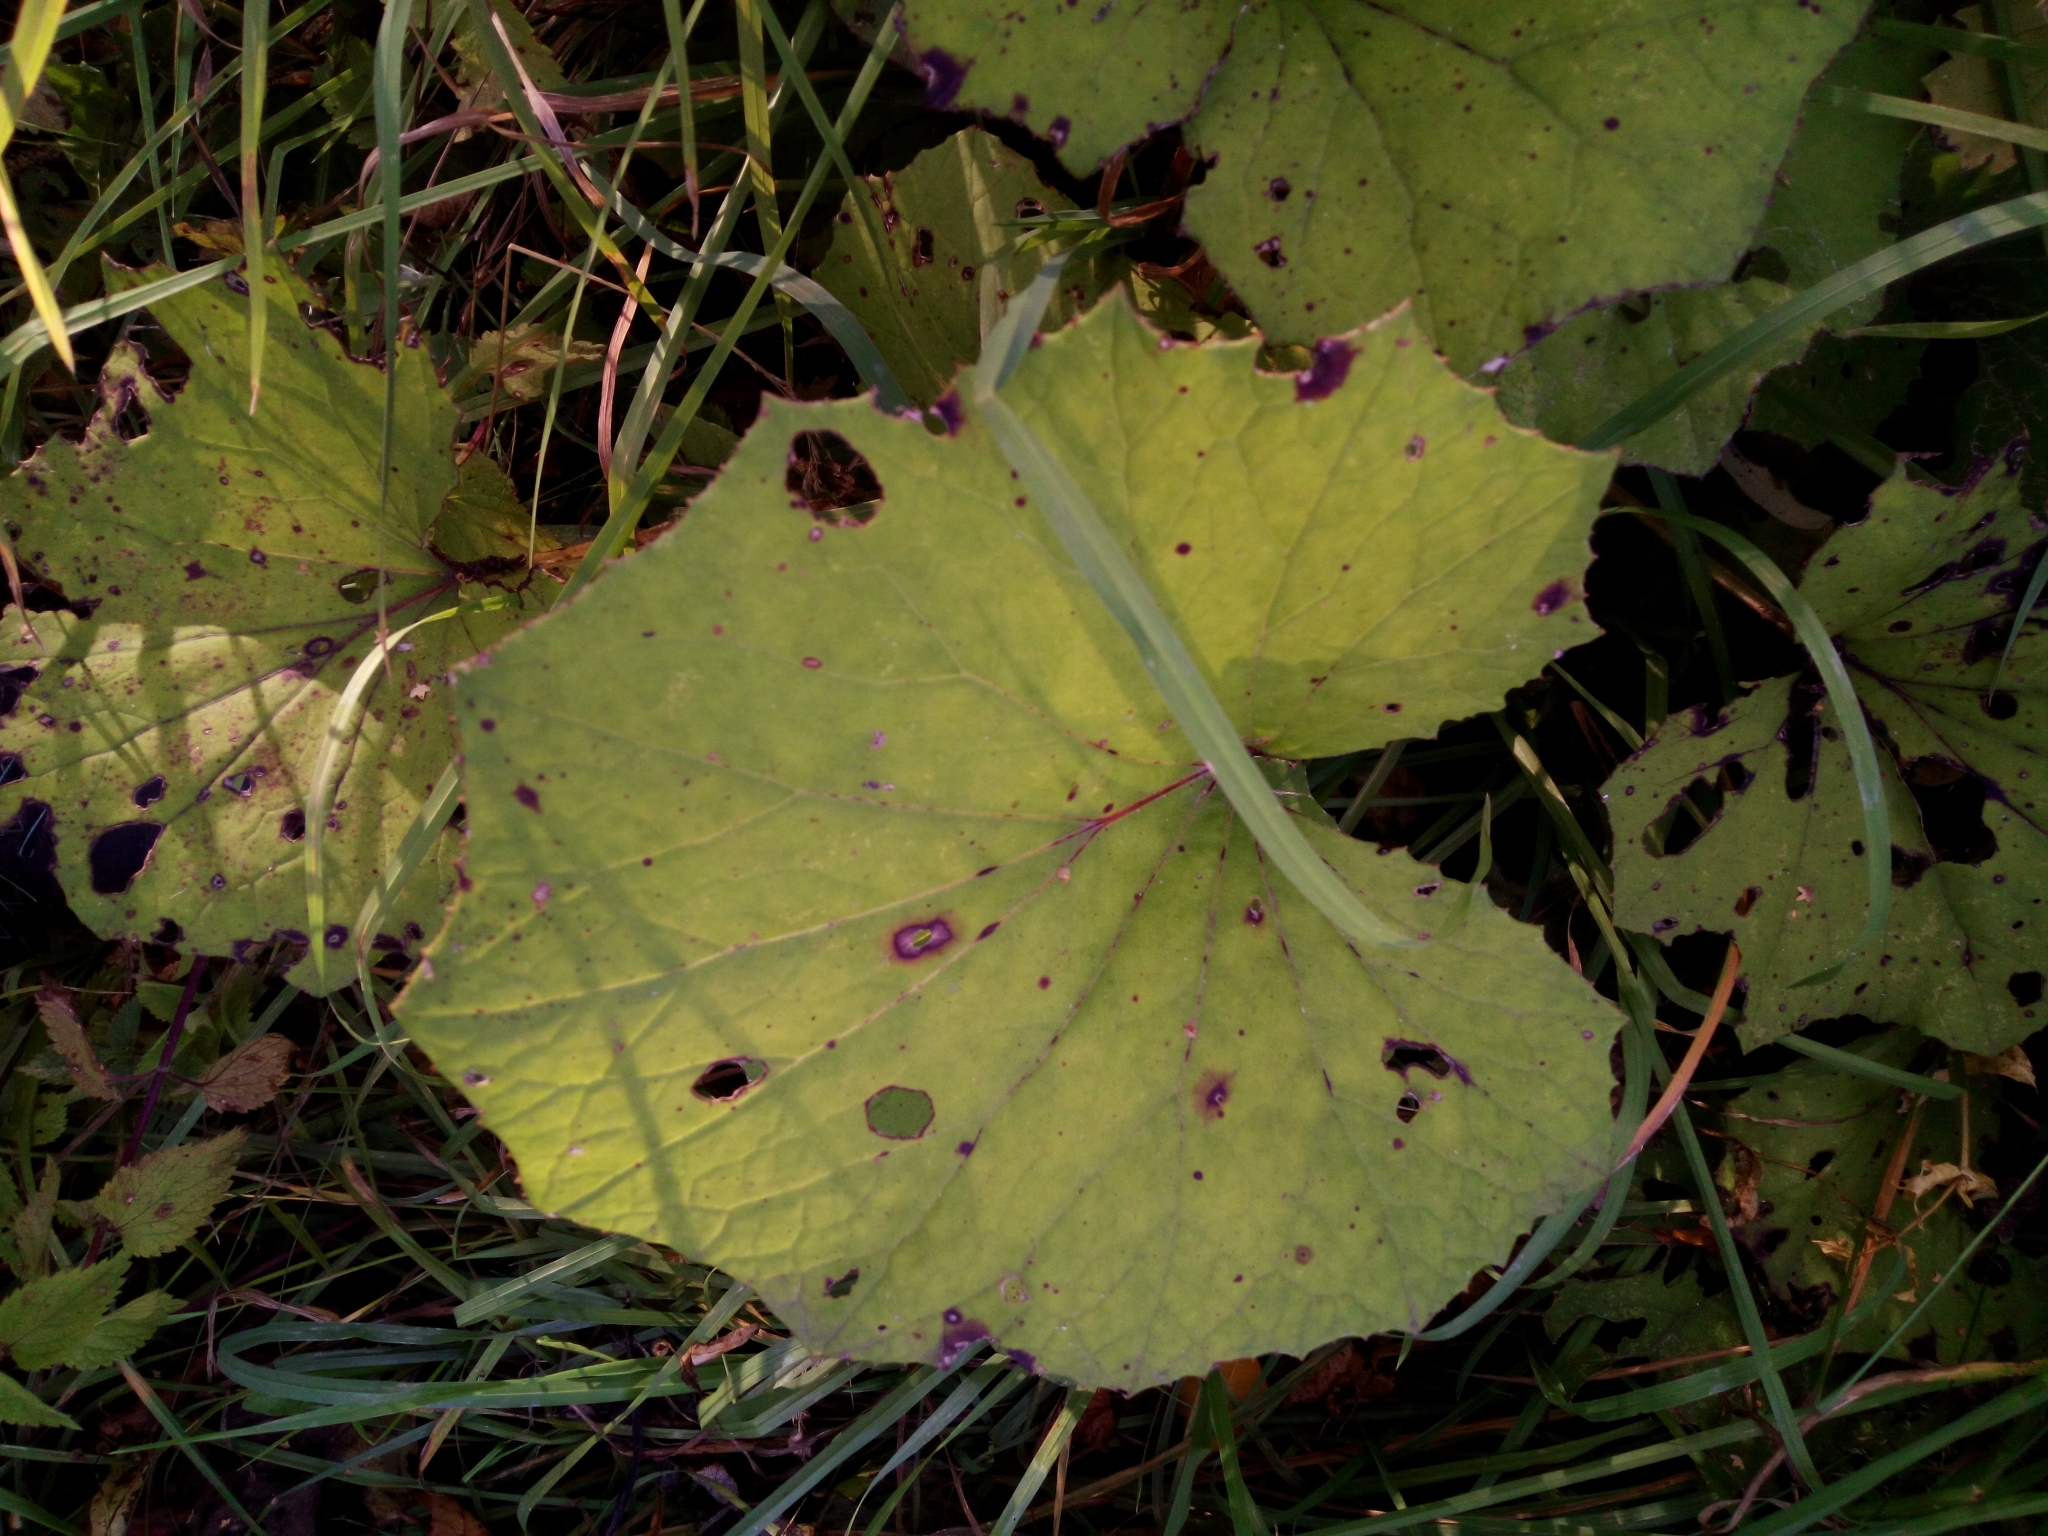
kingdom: Plantae
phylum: Tracheophyta
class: Magnoliopsida
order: Asterales
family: Asteraceae
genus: Tussilago
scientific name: Tussilago farfara
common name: Coltsfoot
